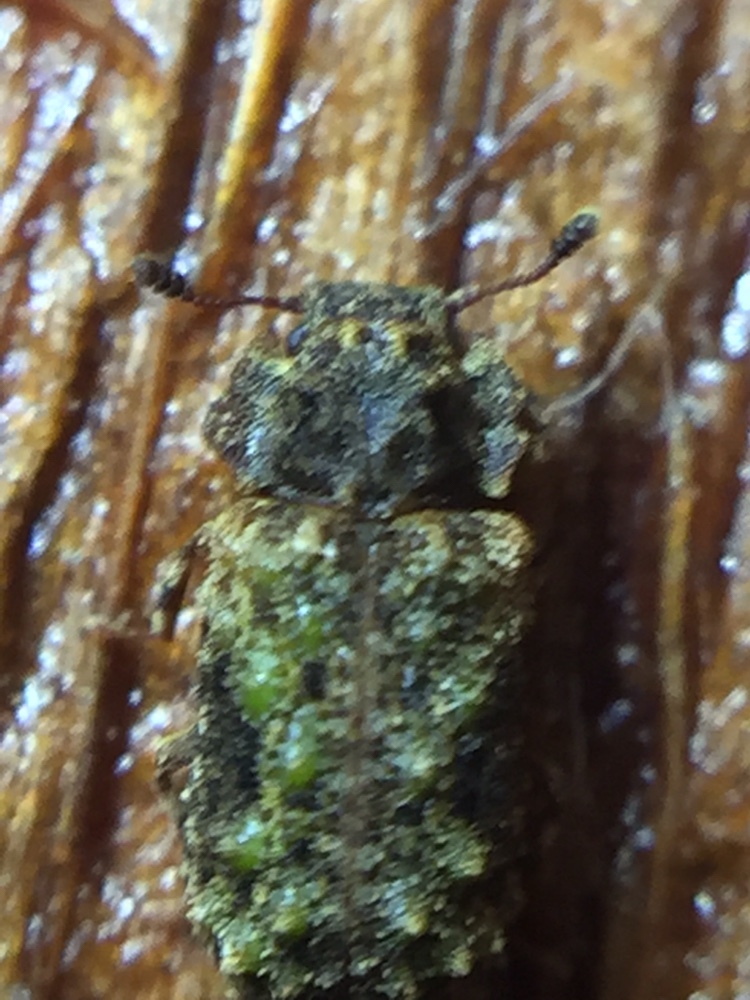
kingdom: Animalia
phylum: Arthropoda
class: Insecta
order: Coleoptera
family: Zopheridae
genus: Pristoderus
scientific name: Pristoderus
